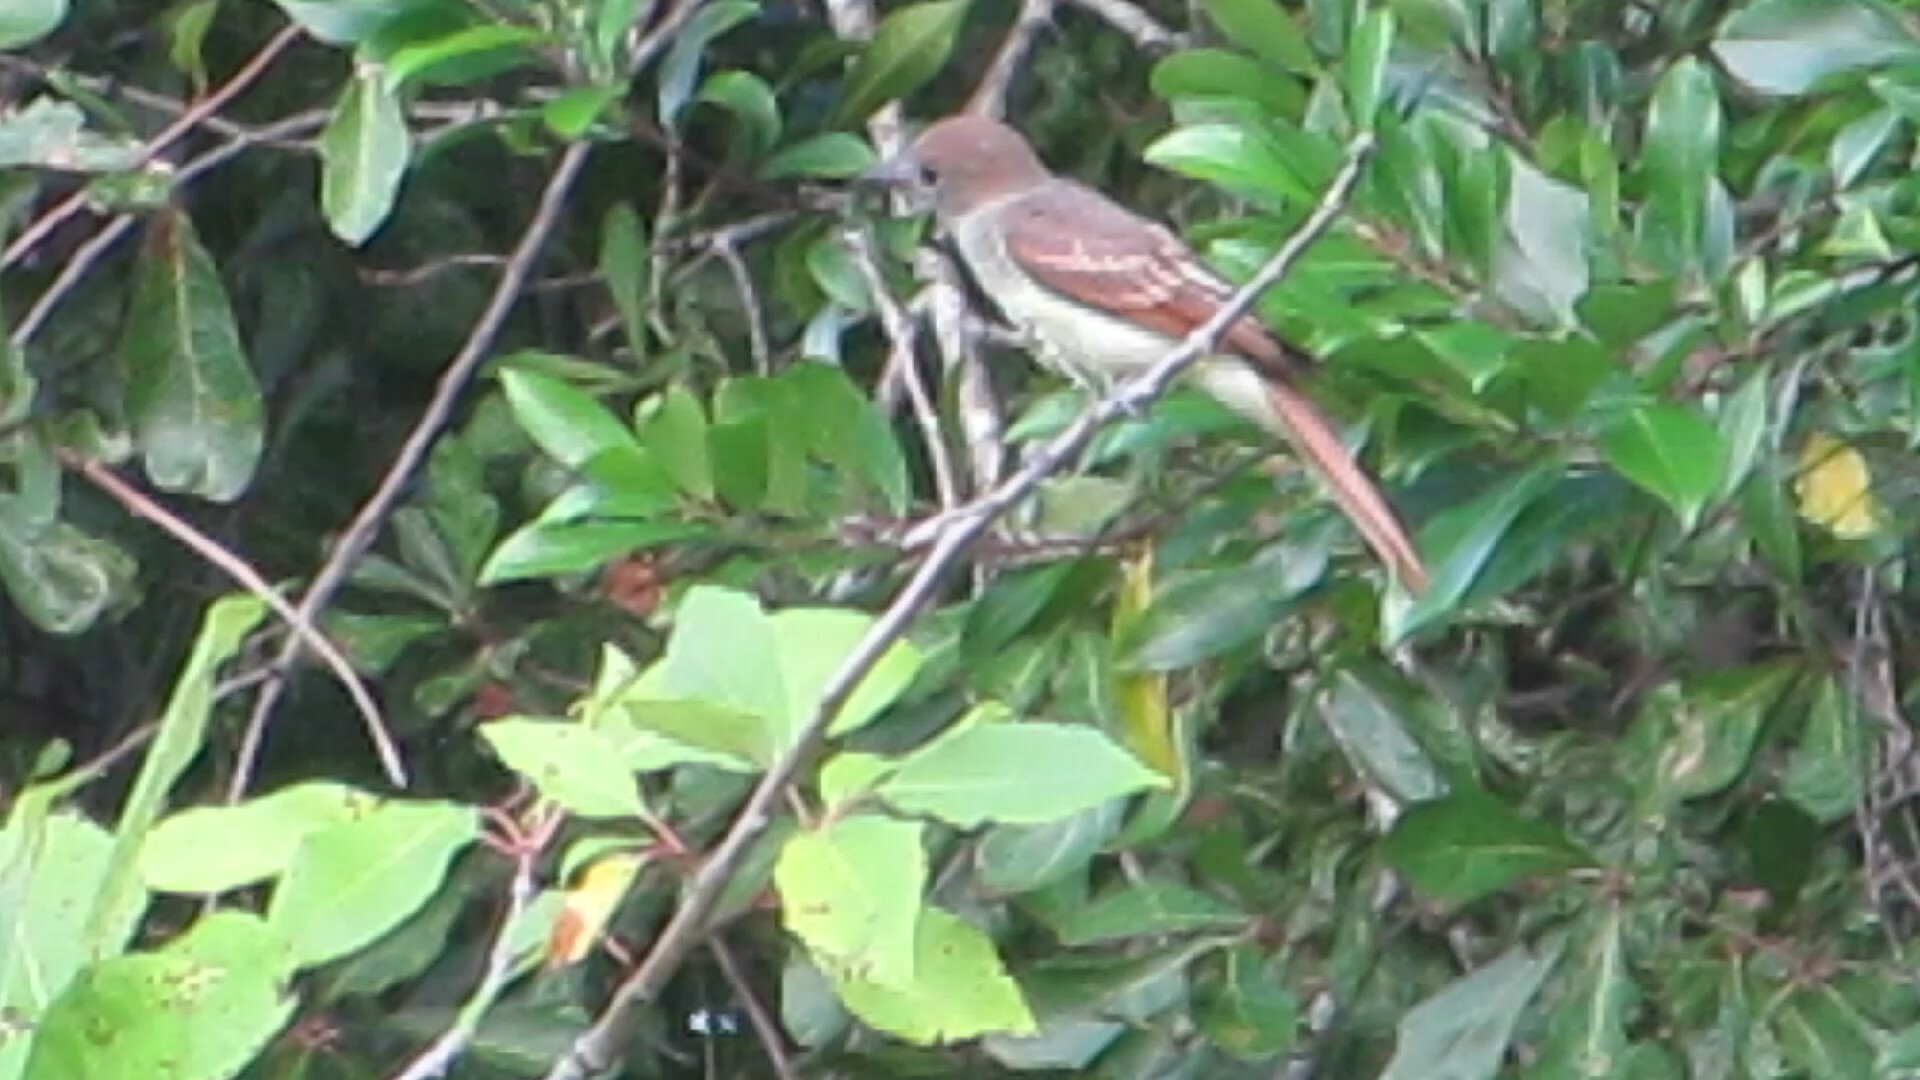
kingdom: Animalia
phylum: Chordata
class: Aves
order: Passeriformes
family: Tyrannidae
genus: Myiarchus
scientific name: Myiarchus crinitus
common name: Great crested flycatcher
